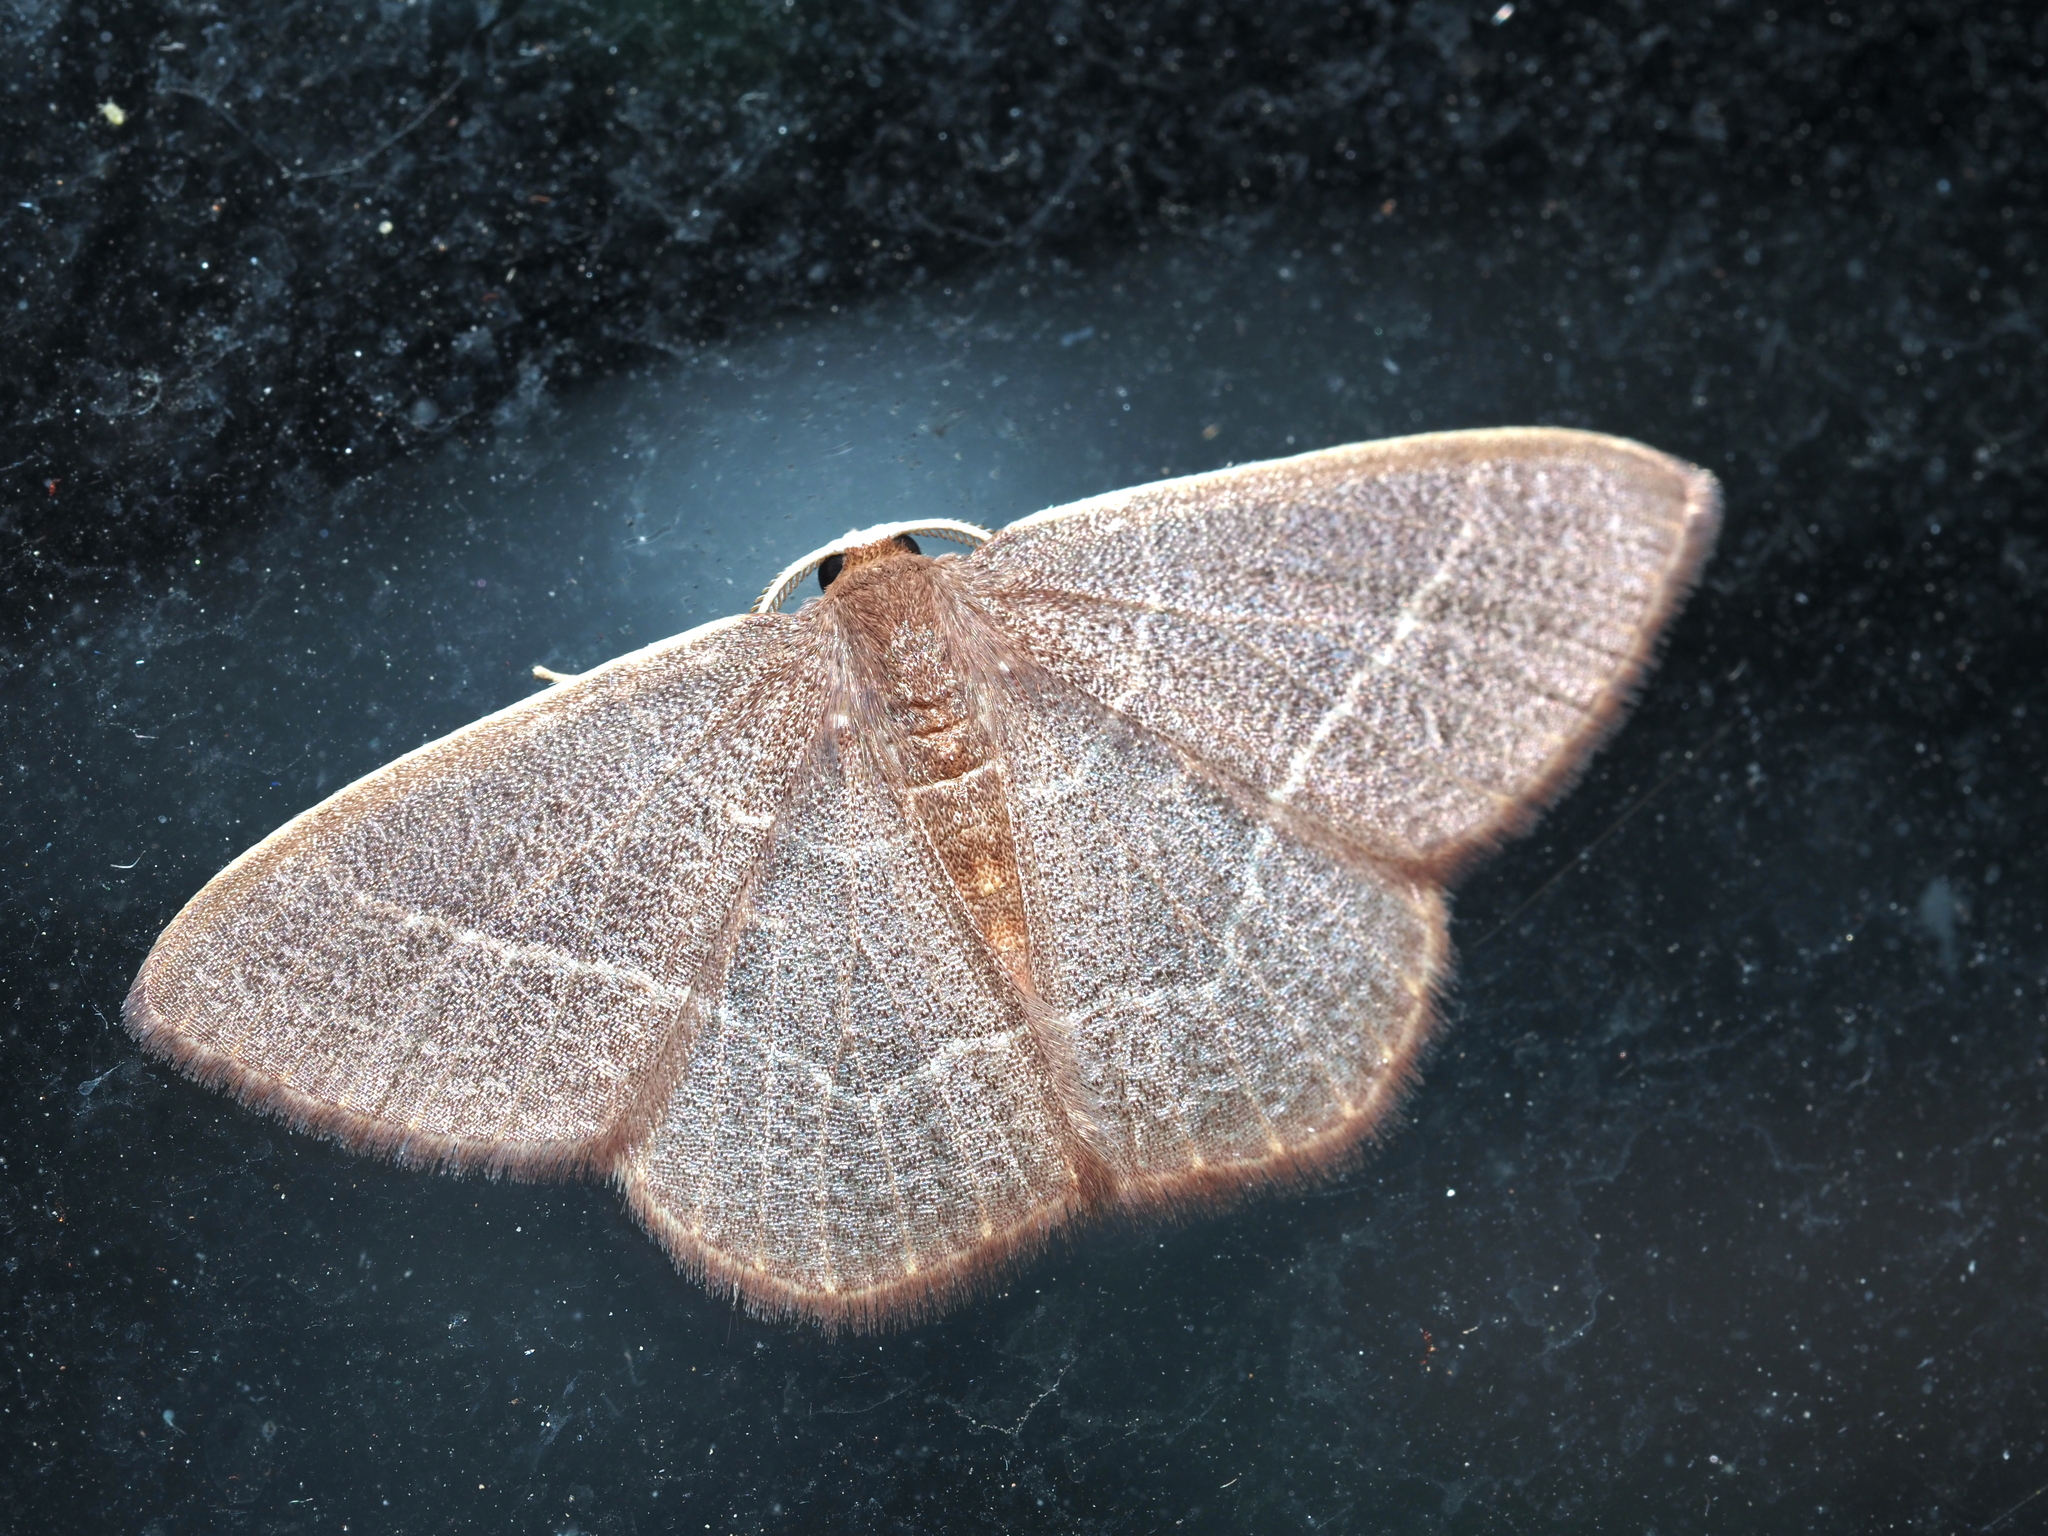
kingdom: Animalia
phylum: Arthropoda
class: Insecta
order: Lepidoptera
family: Geometridae
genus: Nemoria
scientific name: Nemoria bistriaria
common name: Red-fringed emerald
